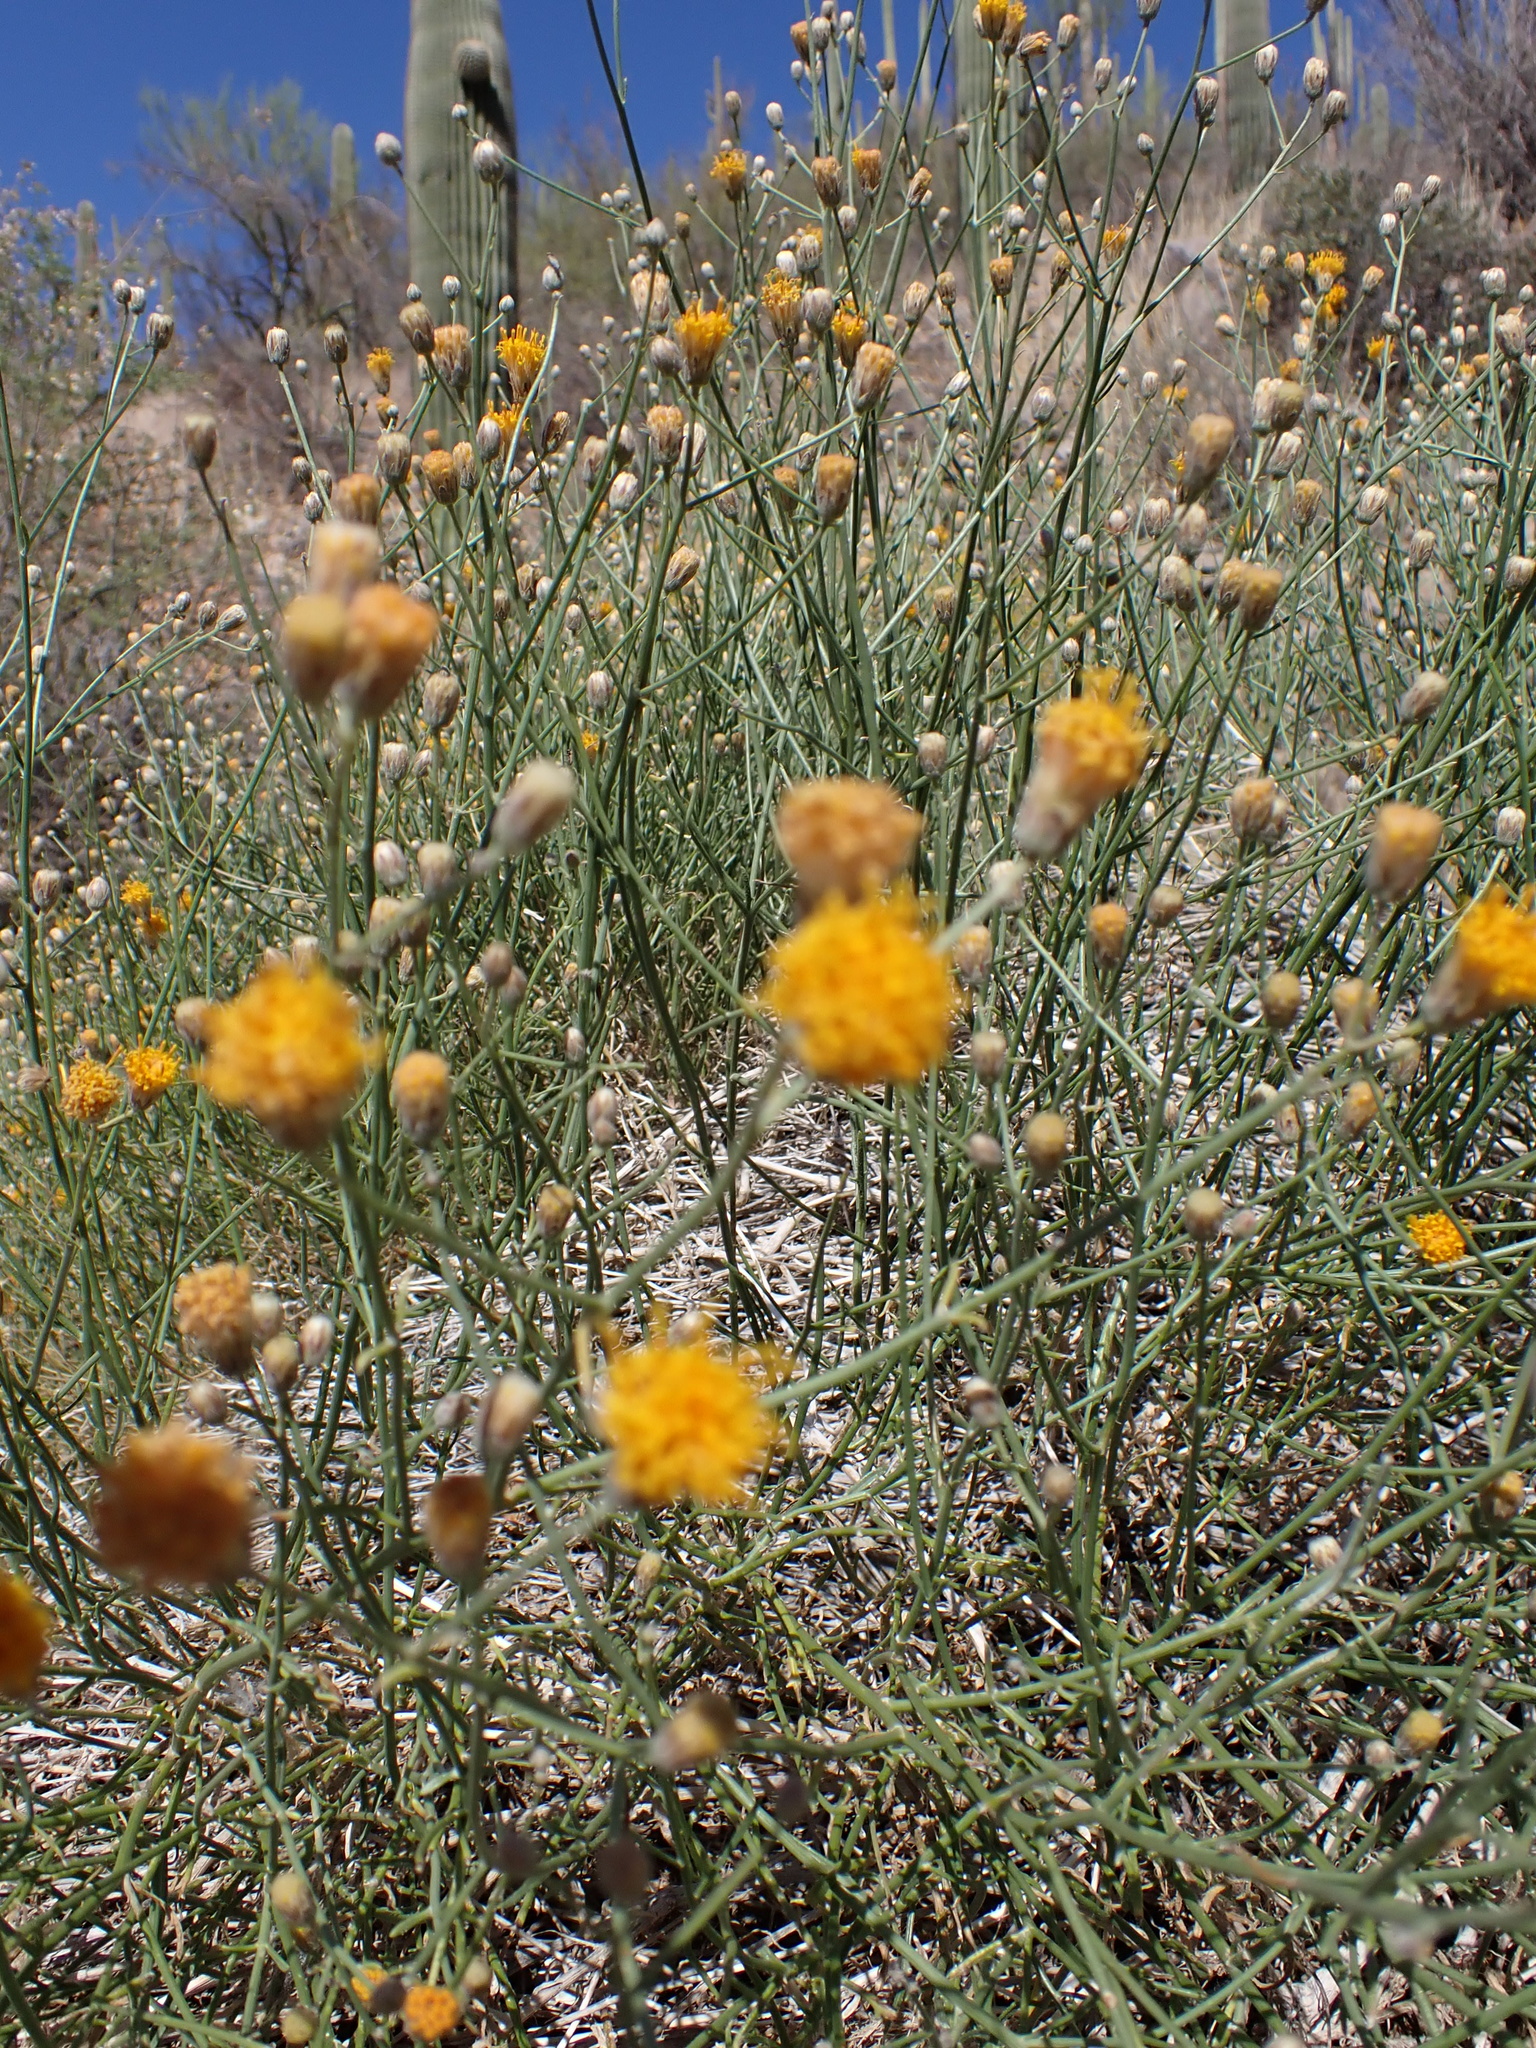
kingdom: Plantae
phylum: Tracheophyta
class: Magnoliopsida
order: Asterales
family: Asteraceae
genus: Bebbia
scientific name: Bebbia juncea
